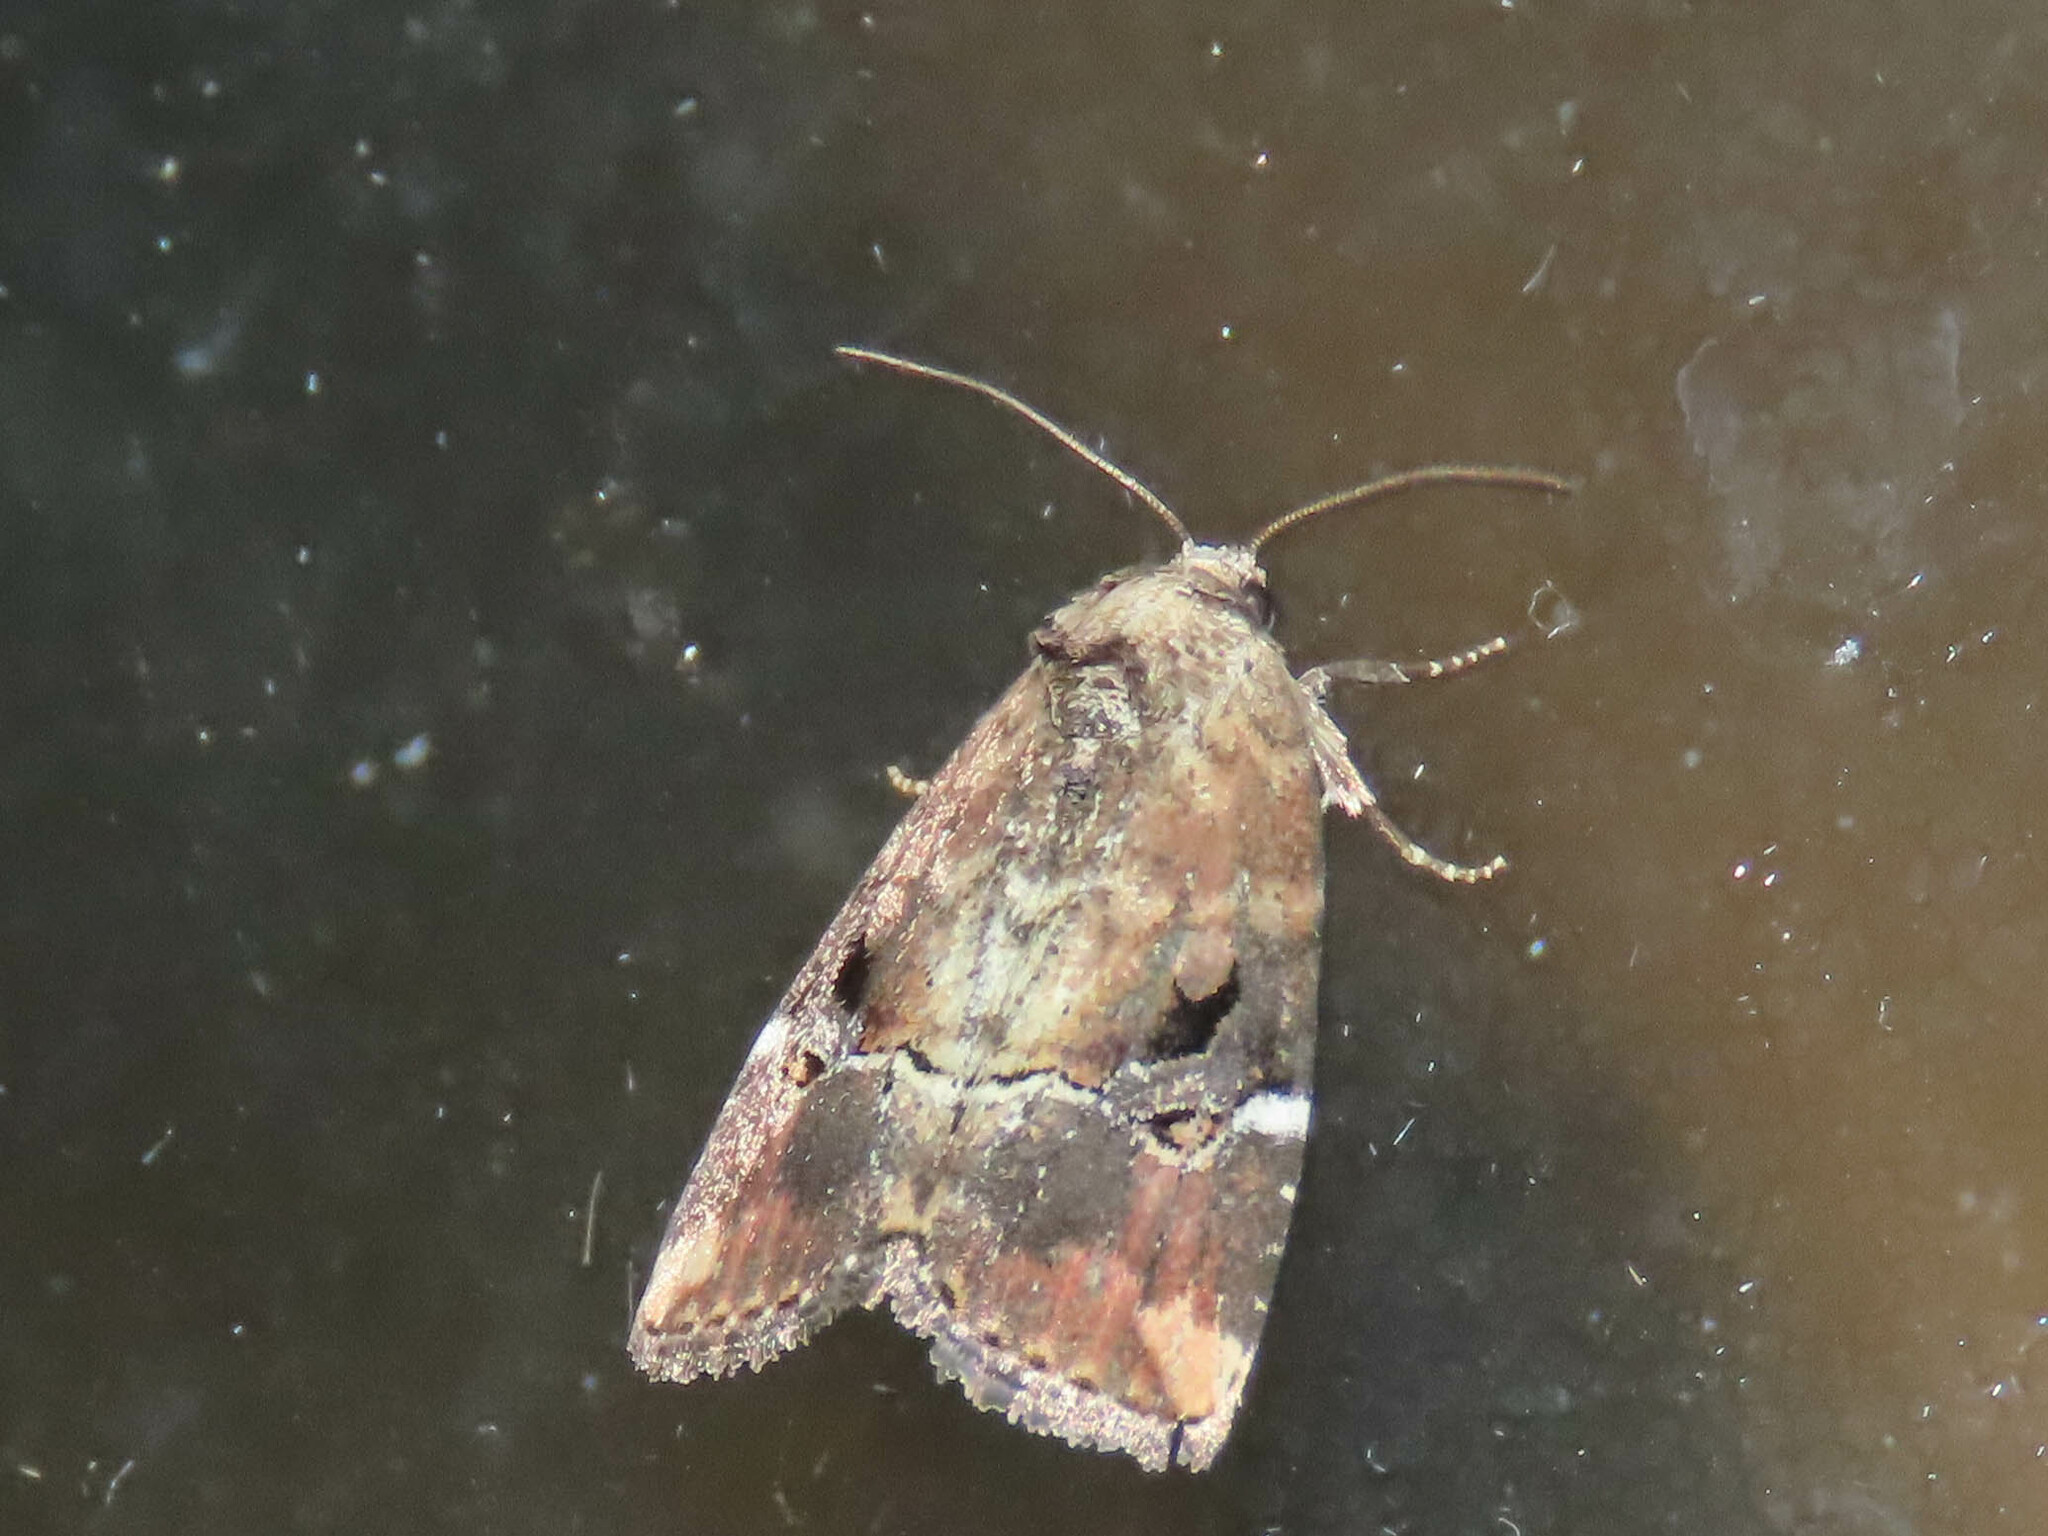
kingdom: Animalia
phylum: Arthropoda
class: Insecta
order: Lepidoptera
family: Noctuidae
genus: Elaphria
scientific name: Elaphria versicolor
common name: Fir harlequin
